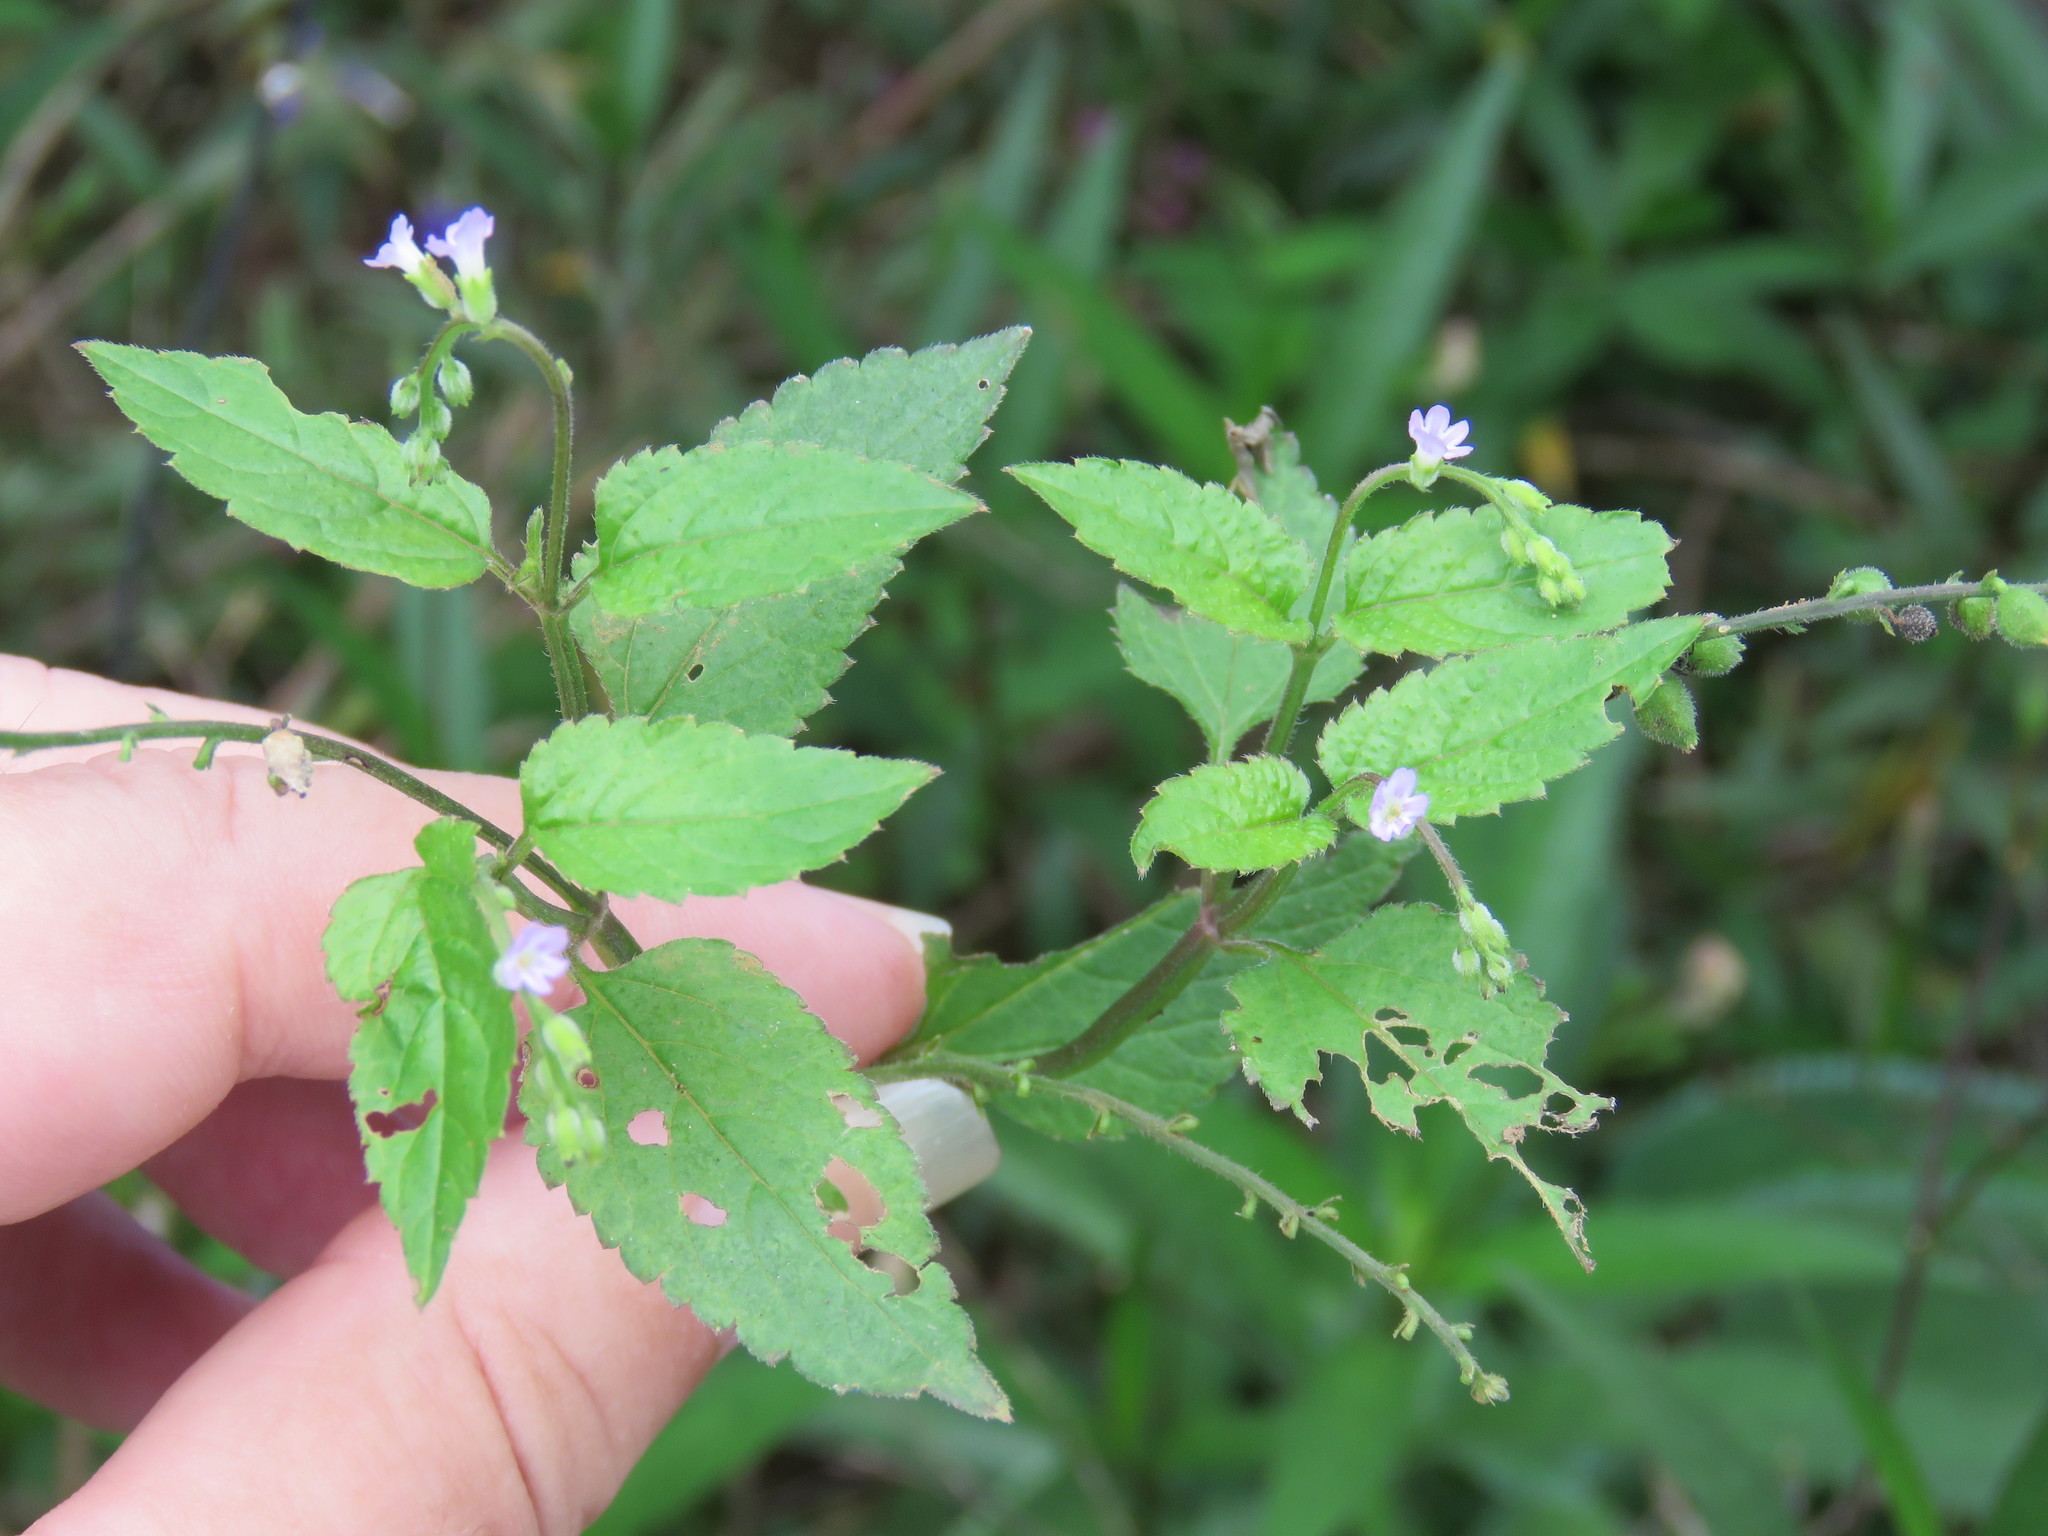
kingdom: Plantae
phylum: Tracheophyta
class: Magnoliopsida
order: Lamiales
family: Verbenaceae
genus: Priva
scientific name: Priva lappulacea
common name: Fasten-'pon-coat
